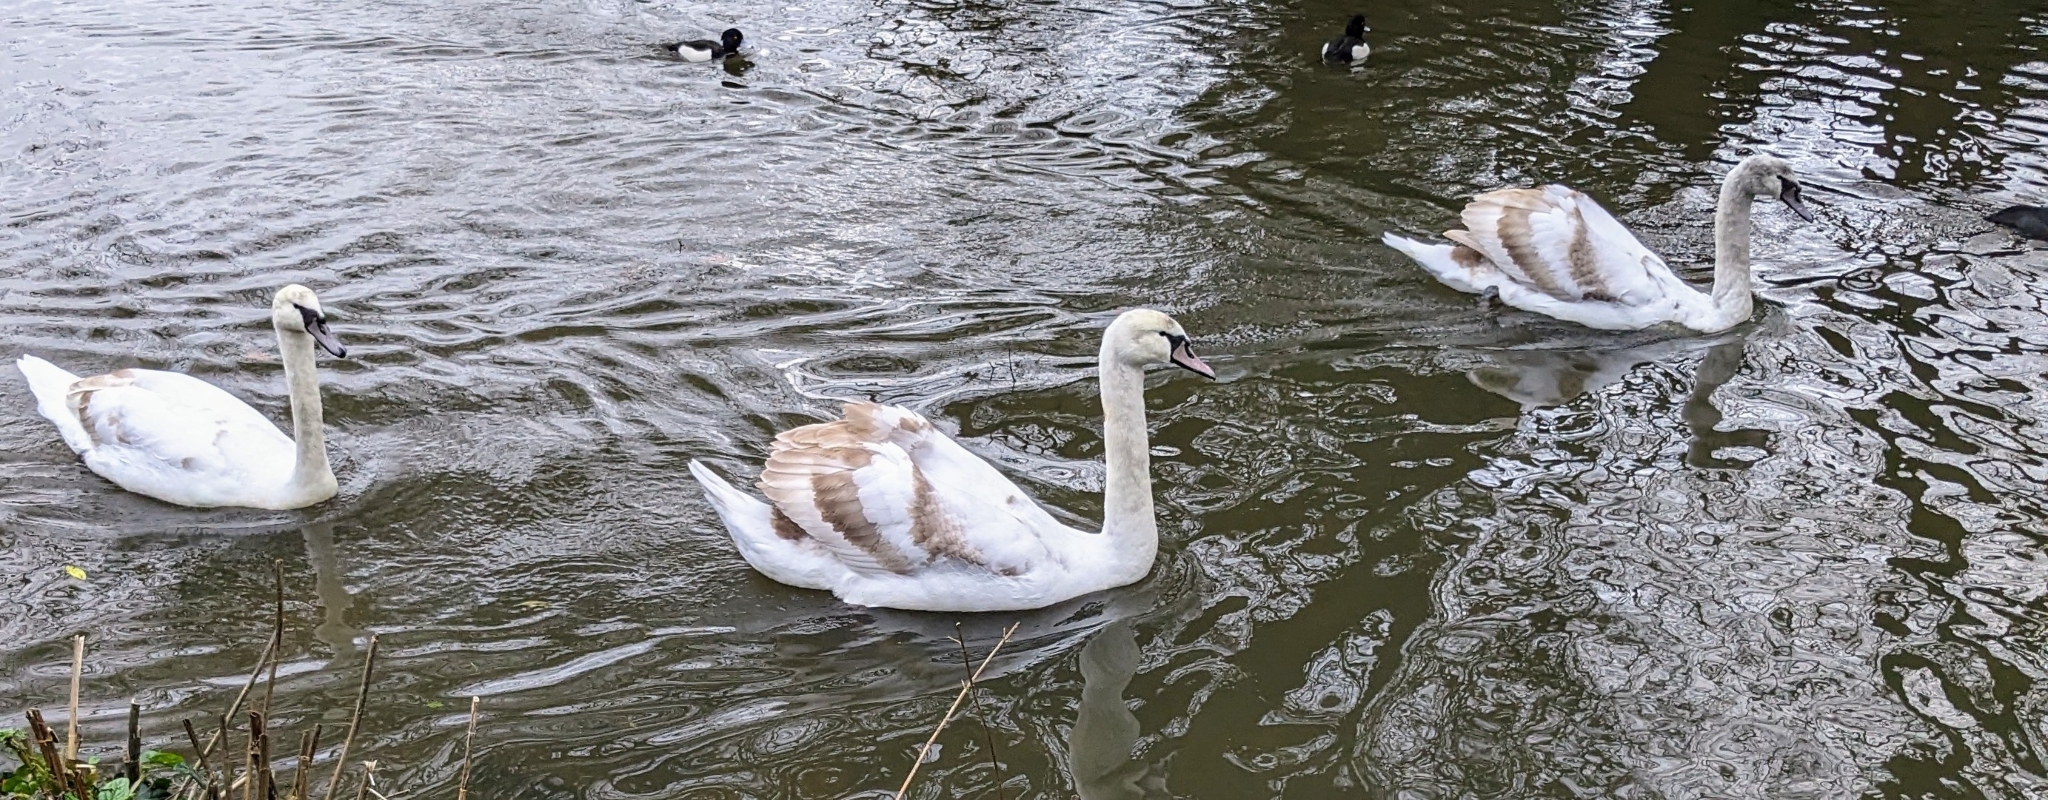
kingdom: Animalia
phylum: Chordata
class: Aves
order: Anseriformes
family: Anatidae
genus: Cygnus
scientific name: Cygnus olor
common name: Mute swan
